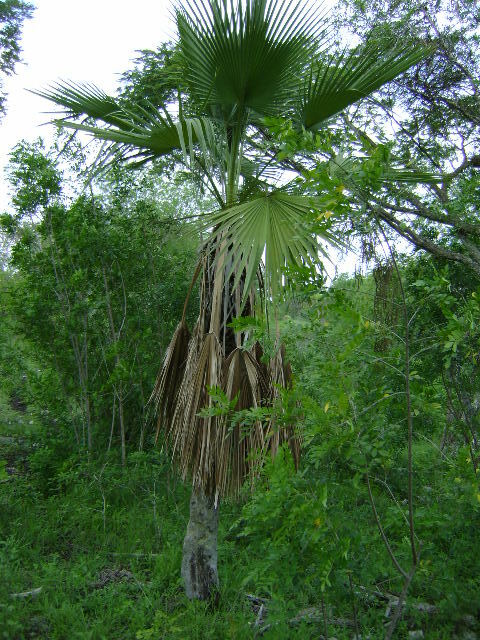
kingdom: Plantae
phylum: Tracheophyta
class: Liliopsida
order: Arecales
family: Arecaceae
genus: Brahea
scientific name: Brahea dulcis
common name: Apak palm
